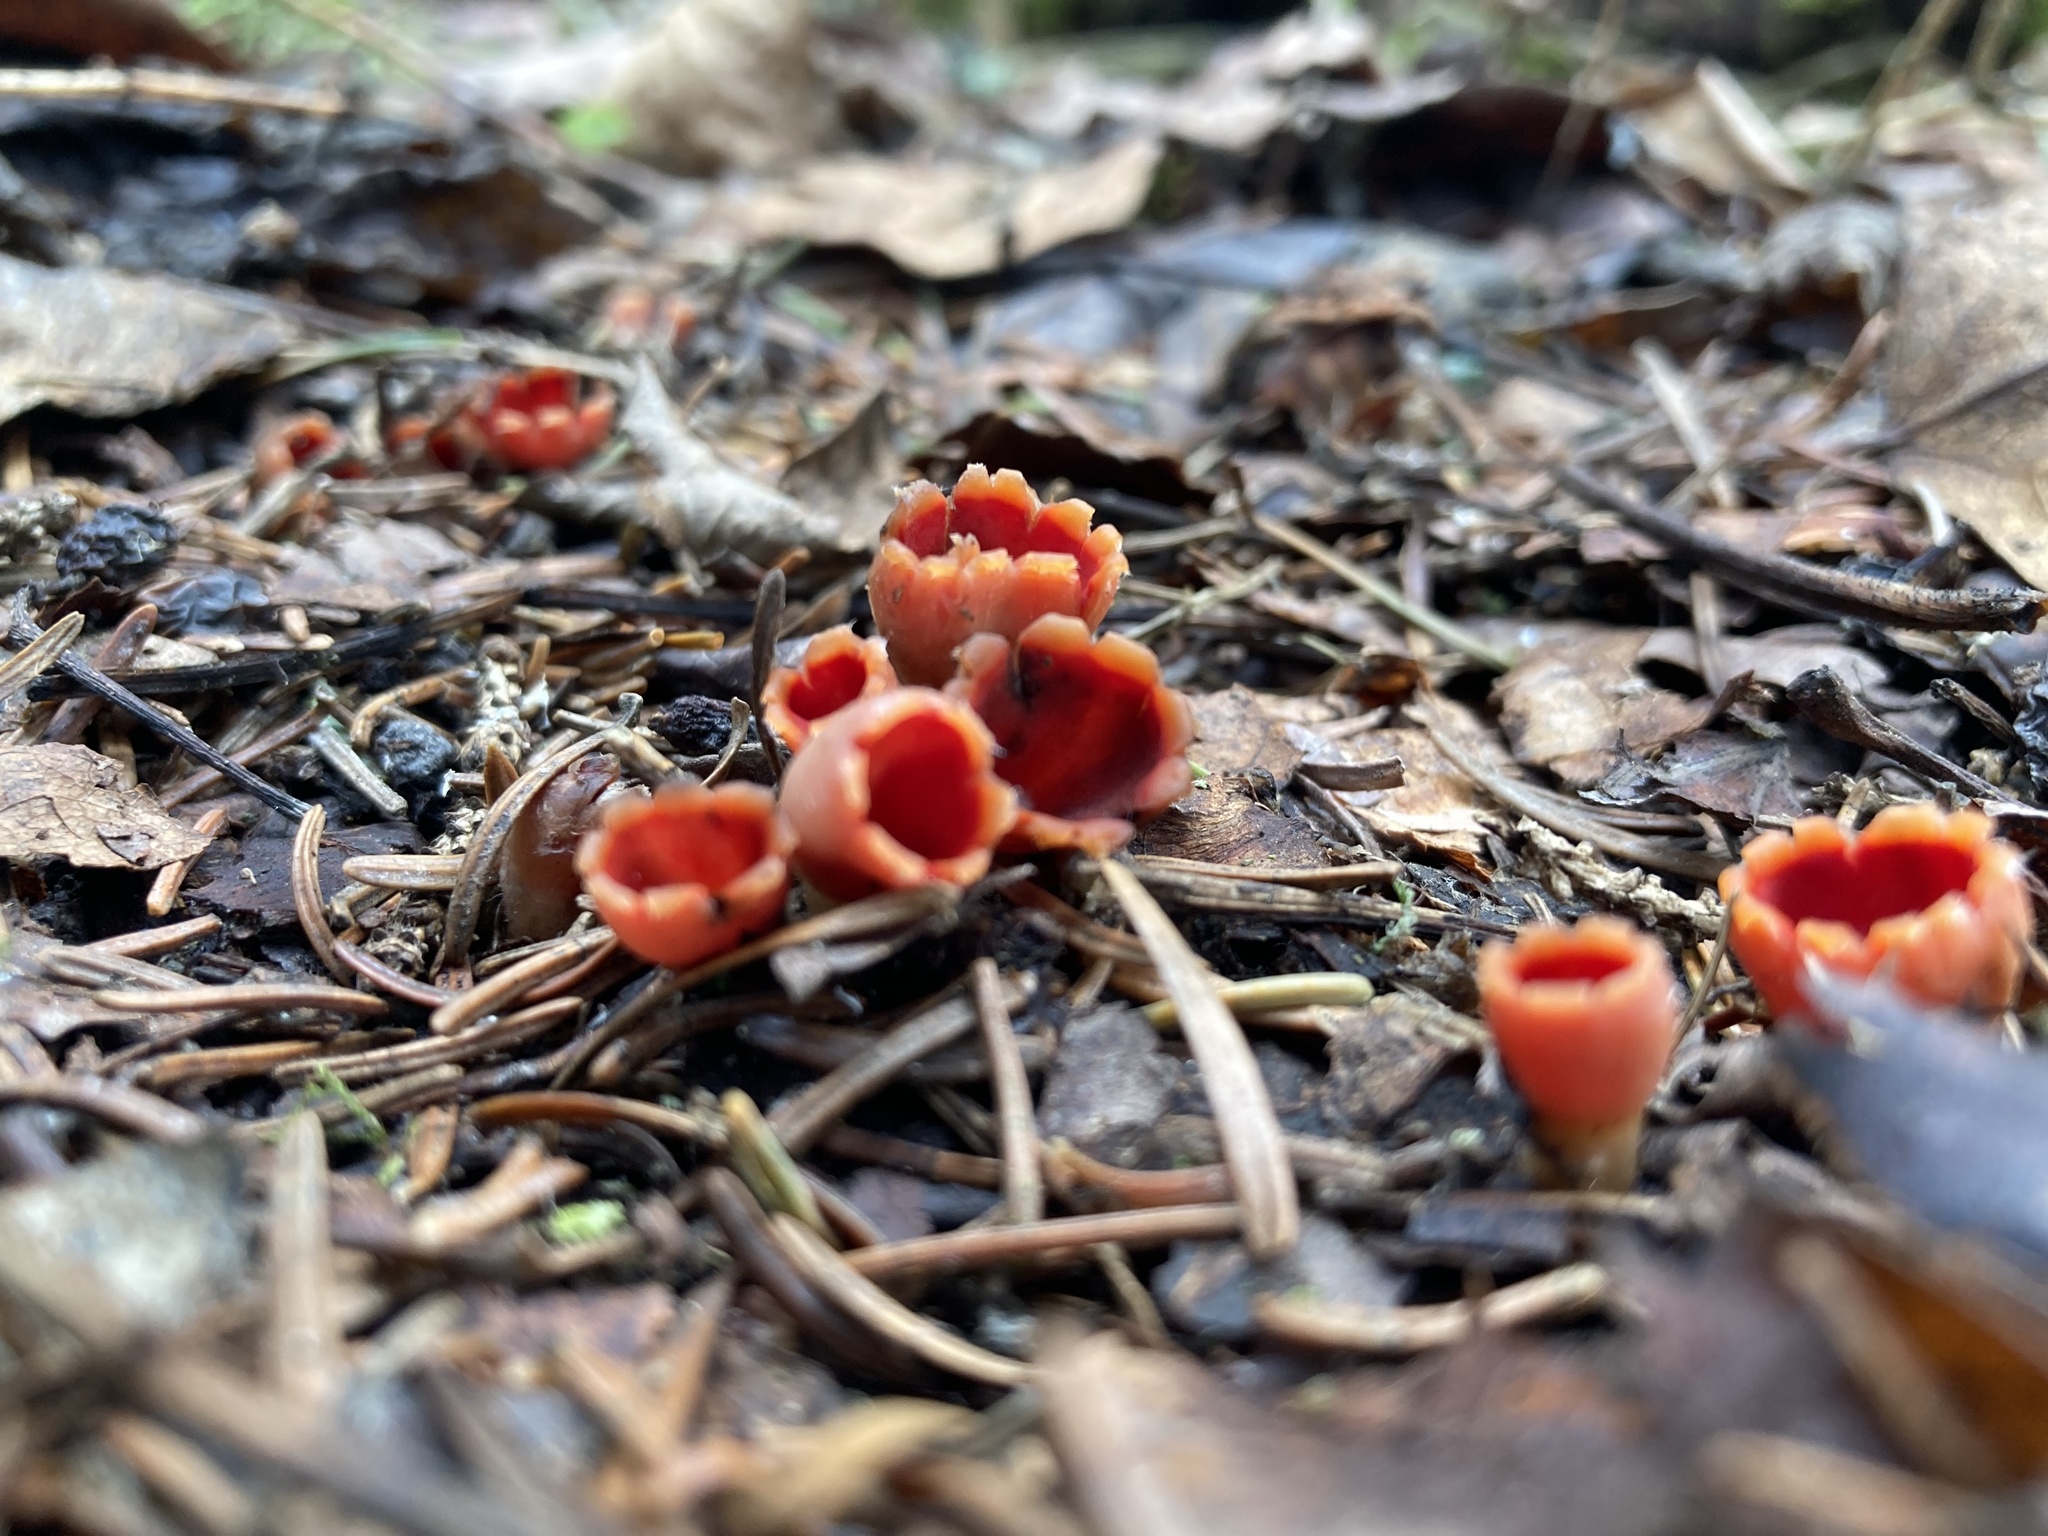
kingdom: Fungi
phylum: Ascomycota
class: Pezizomycetes
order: Pezizales
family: Sarcoscyphaceae
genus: Microstoma
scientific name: Microstoma protractum
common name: Rosy goblet
